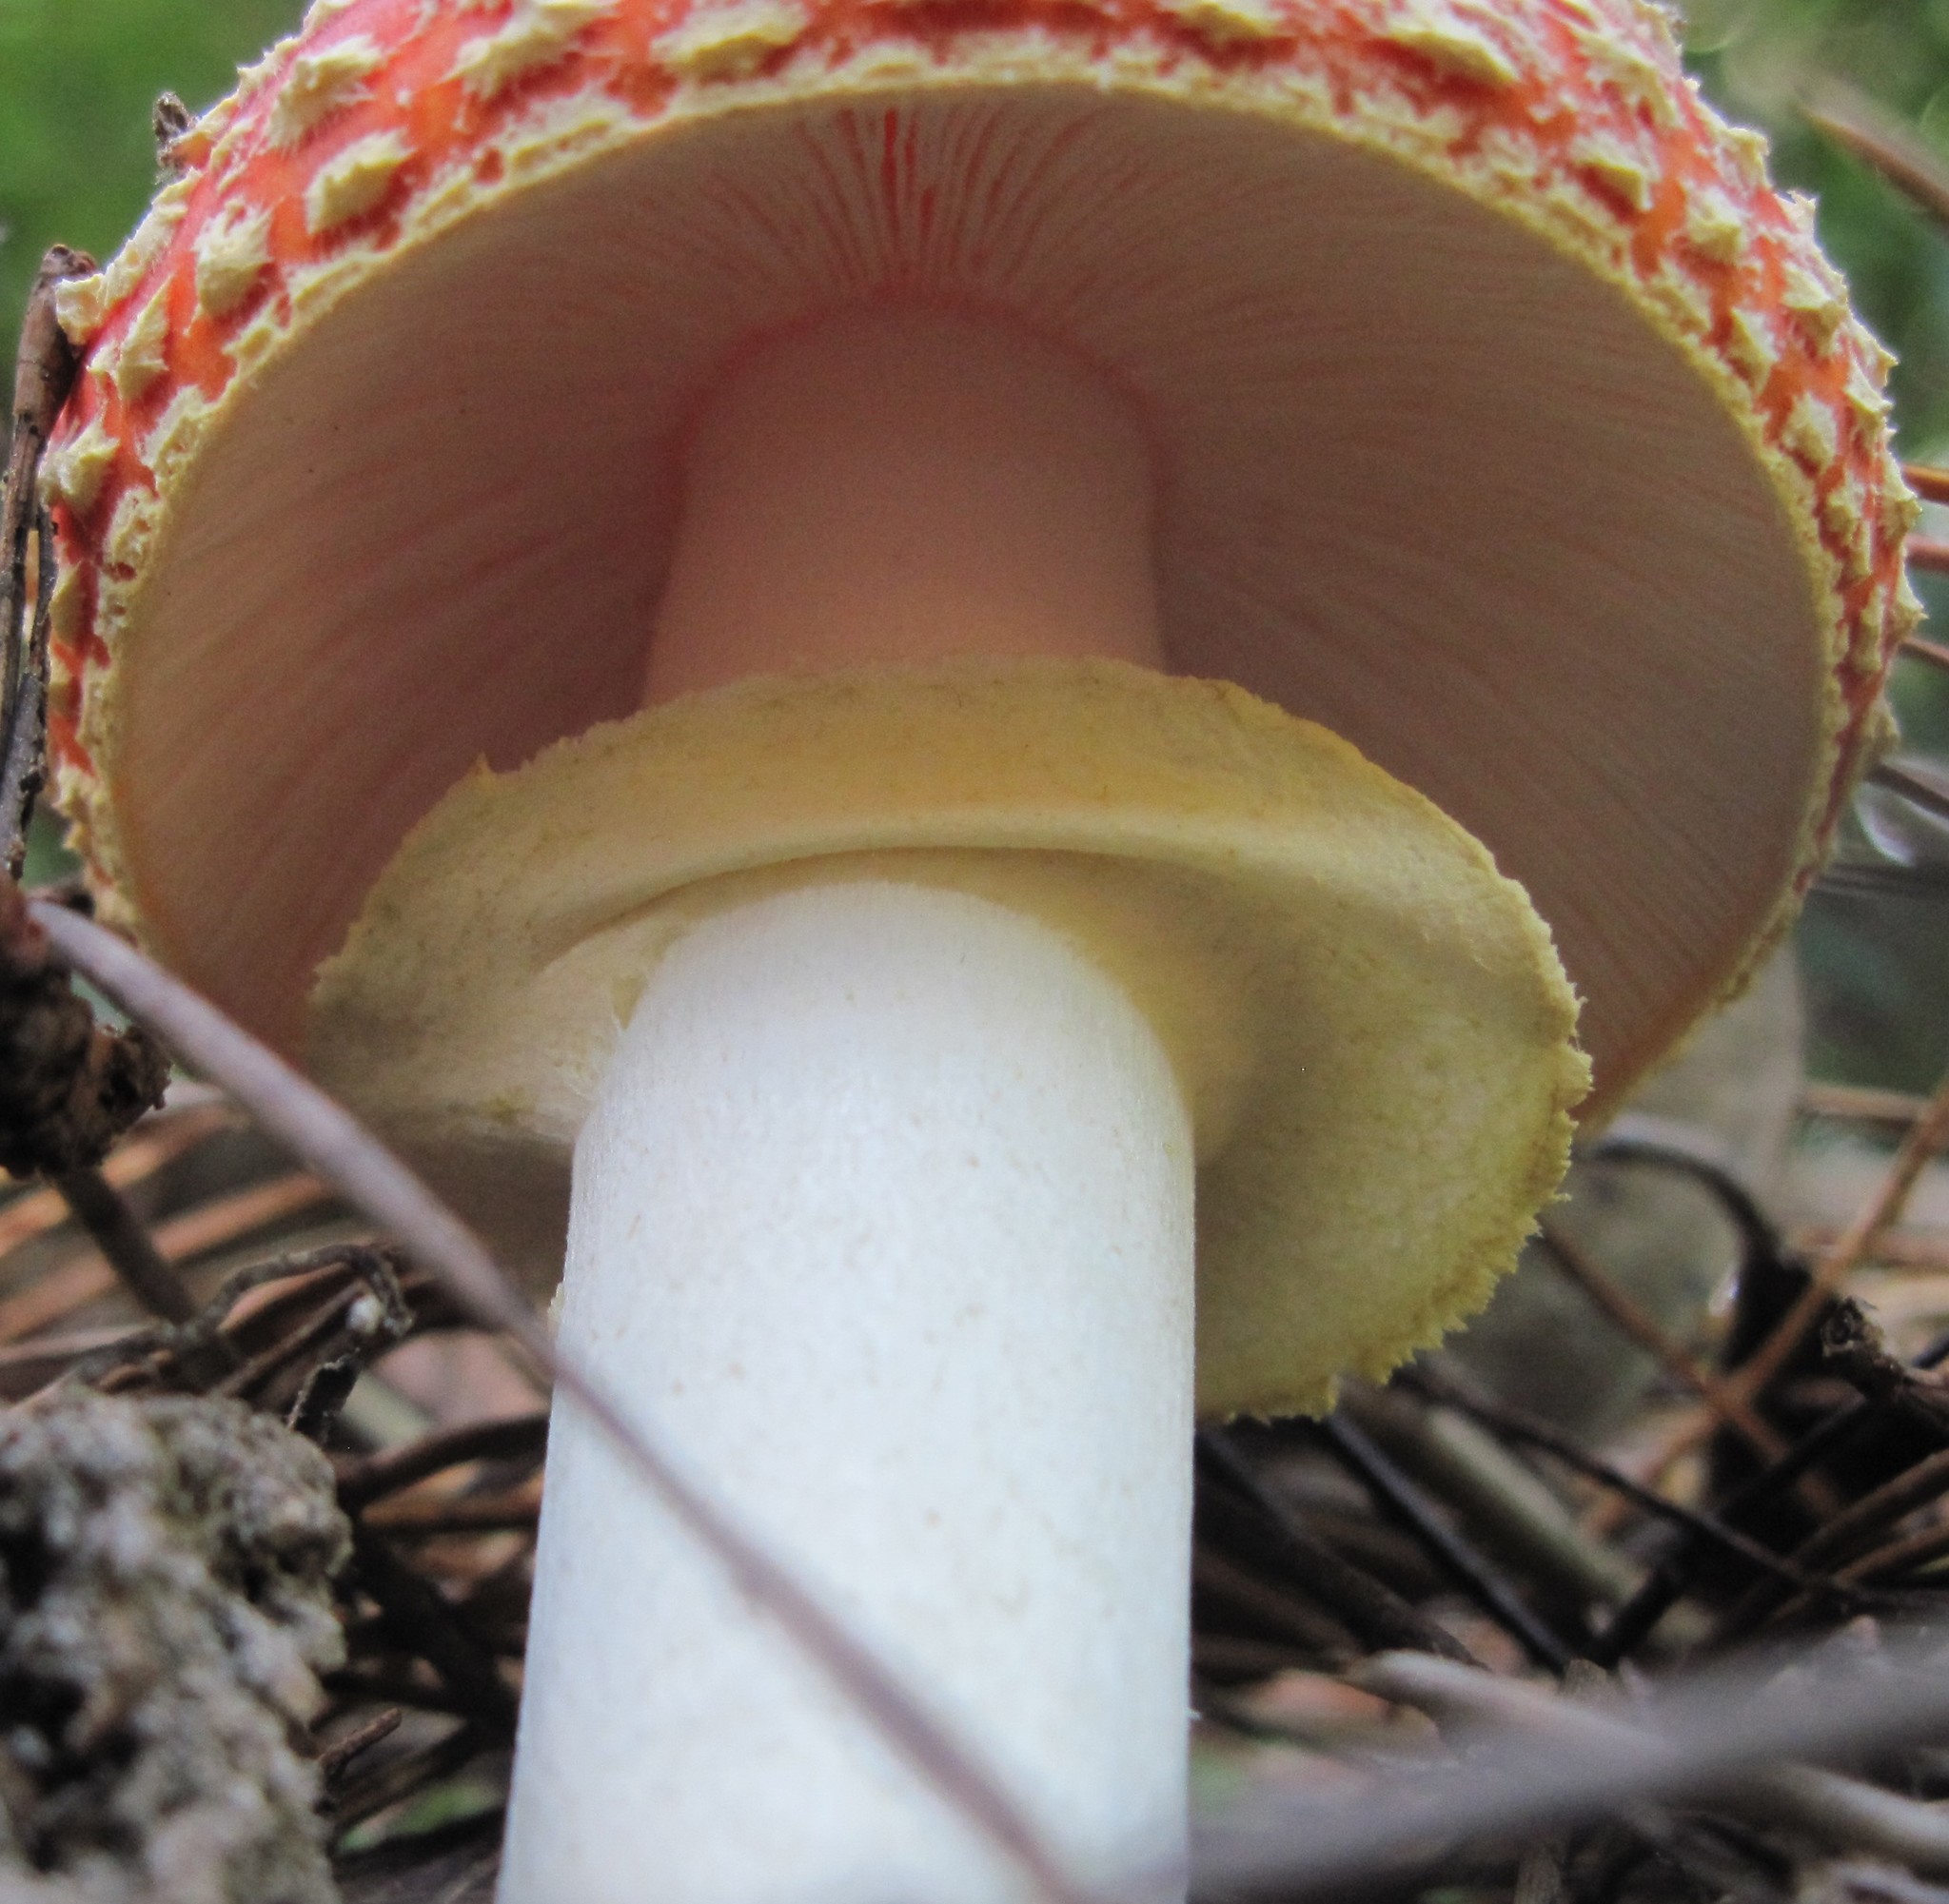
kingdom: Fungi
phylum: Basidiomycota
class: Agaricomycetes
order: Agaricales
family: Amanitaceae
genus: Amanita
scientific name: Amanita muscaria
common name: Fly agaric
